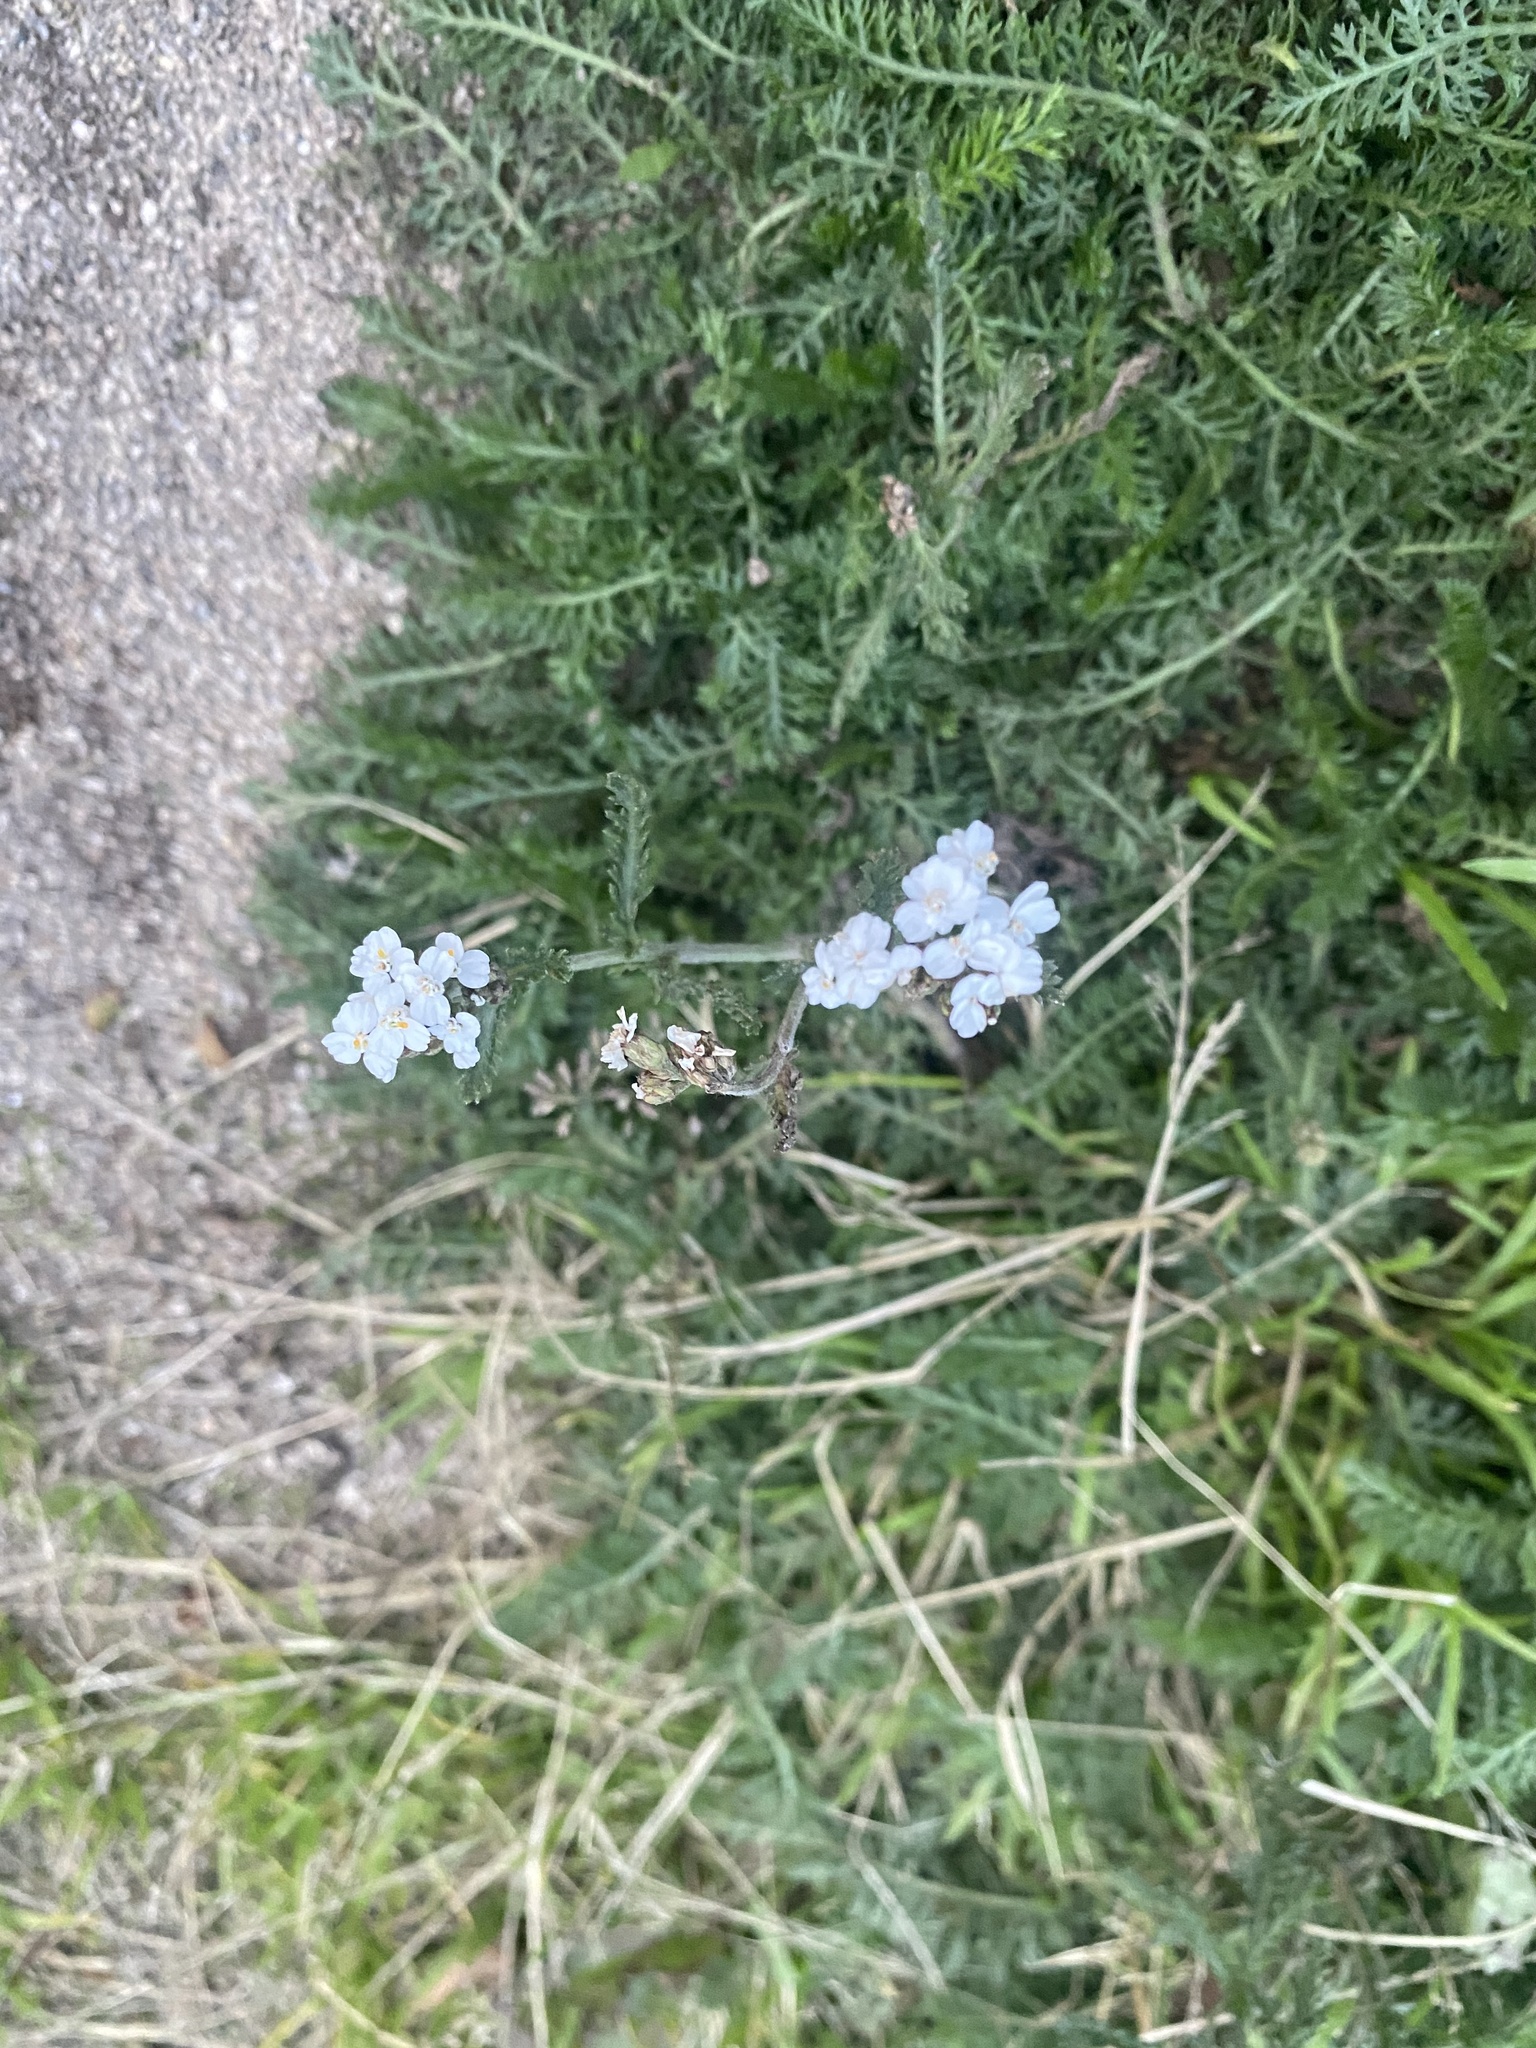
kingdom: Plantae
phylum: Tracheophyta
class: Magnoliopsida
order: Asterales
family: Asteraceae
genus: Achillea
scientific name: Achillea millefolium
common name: Yarrow
